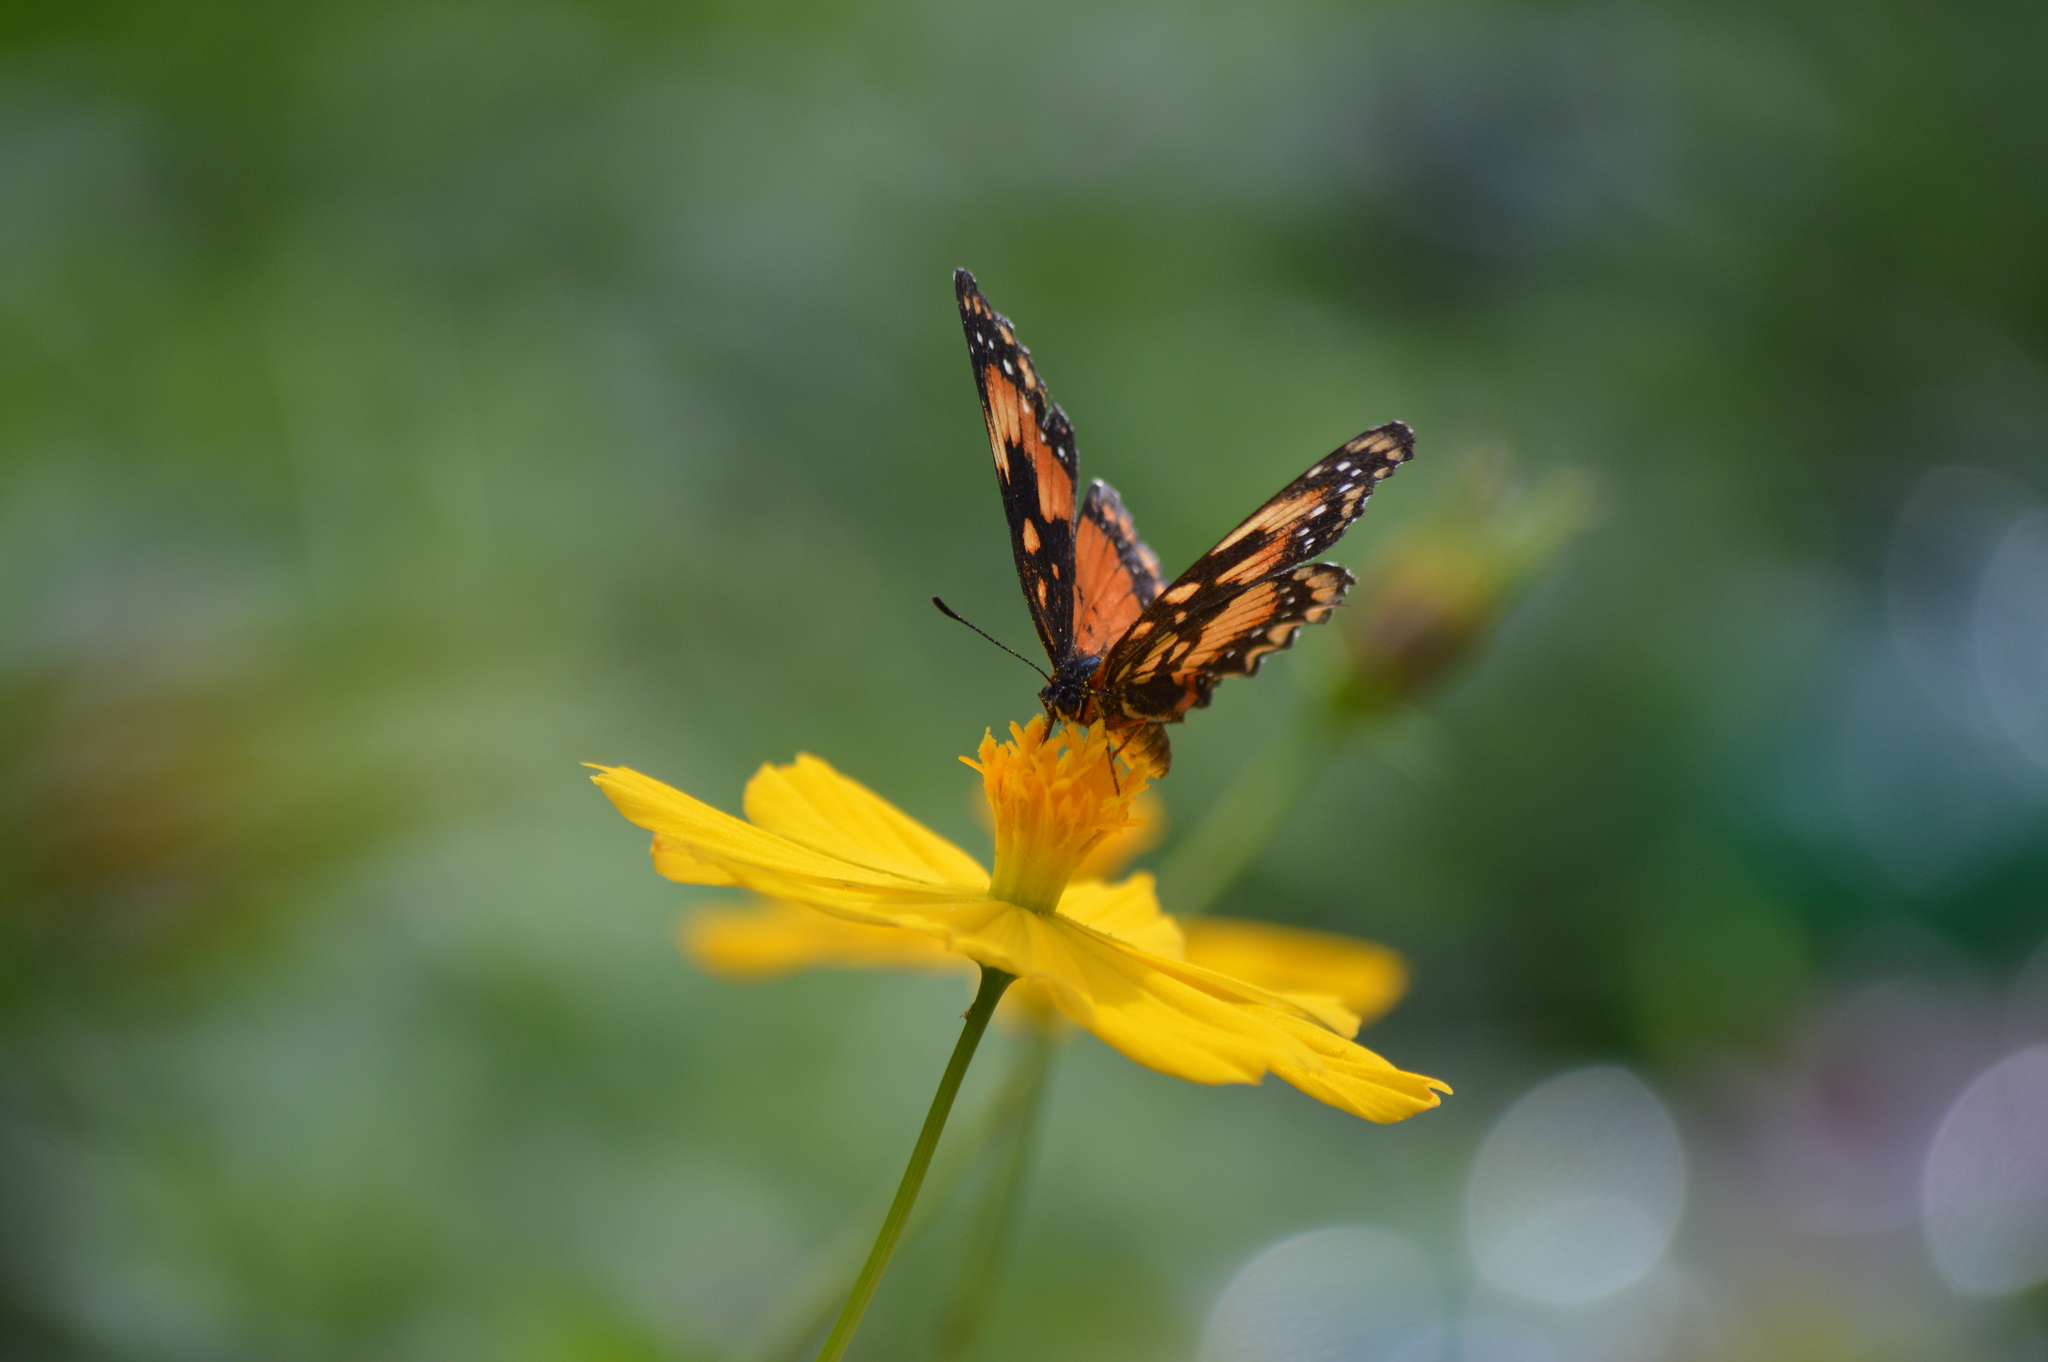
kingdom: Animalia
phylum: Arthropoda
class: Insecta
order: Lepidoptera
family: Nymphalidae
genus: Chlosyne
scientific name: Chlosyne lacinia
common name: Bordered patch
